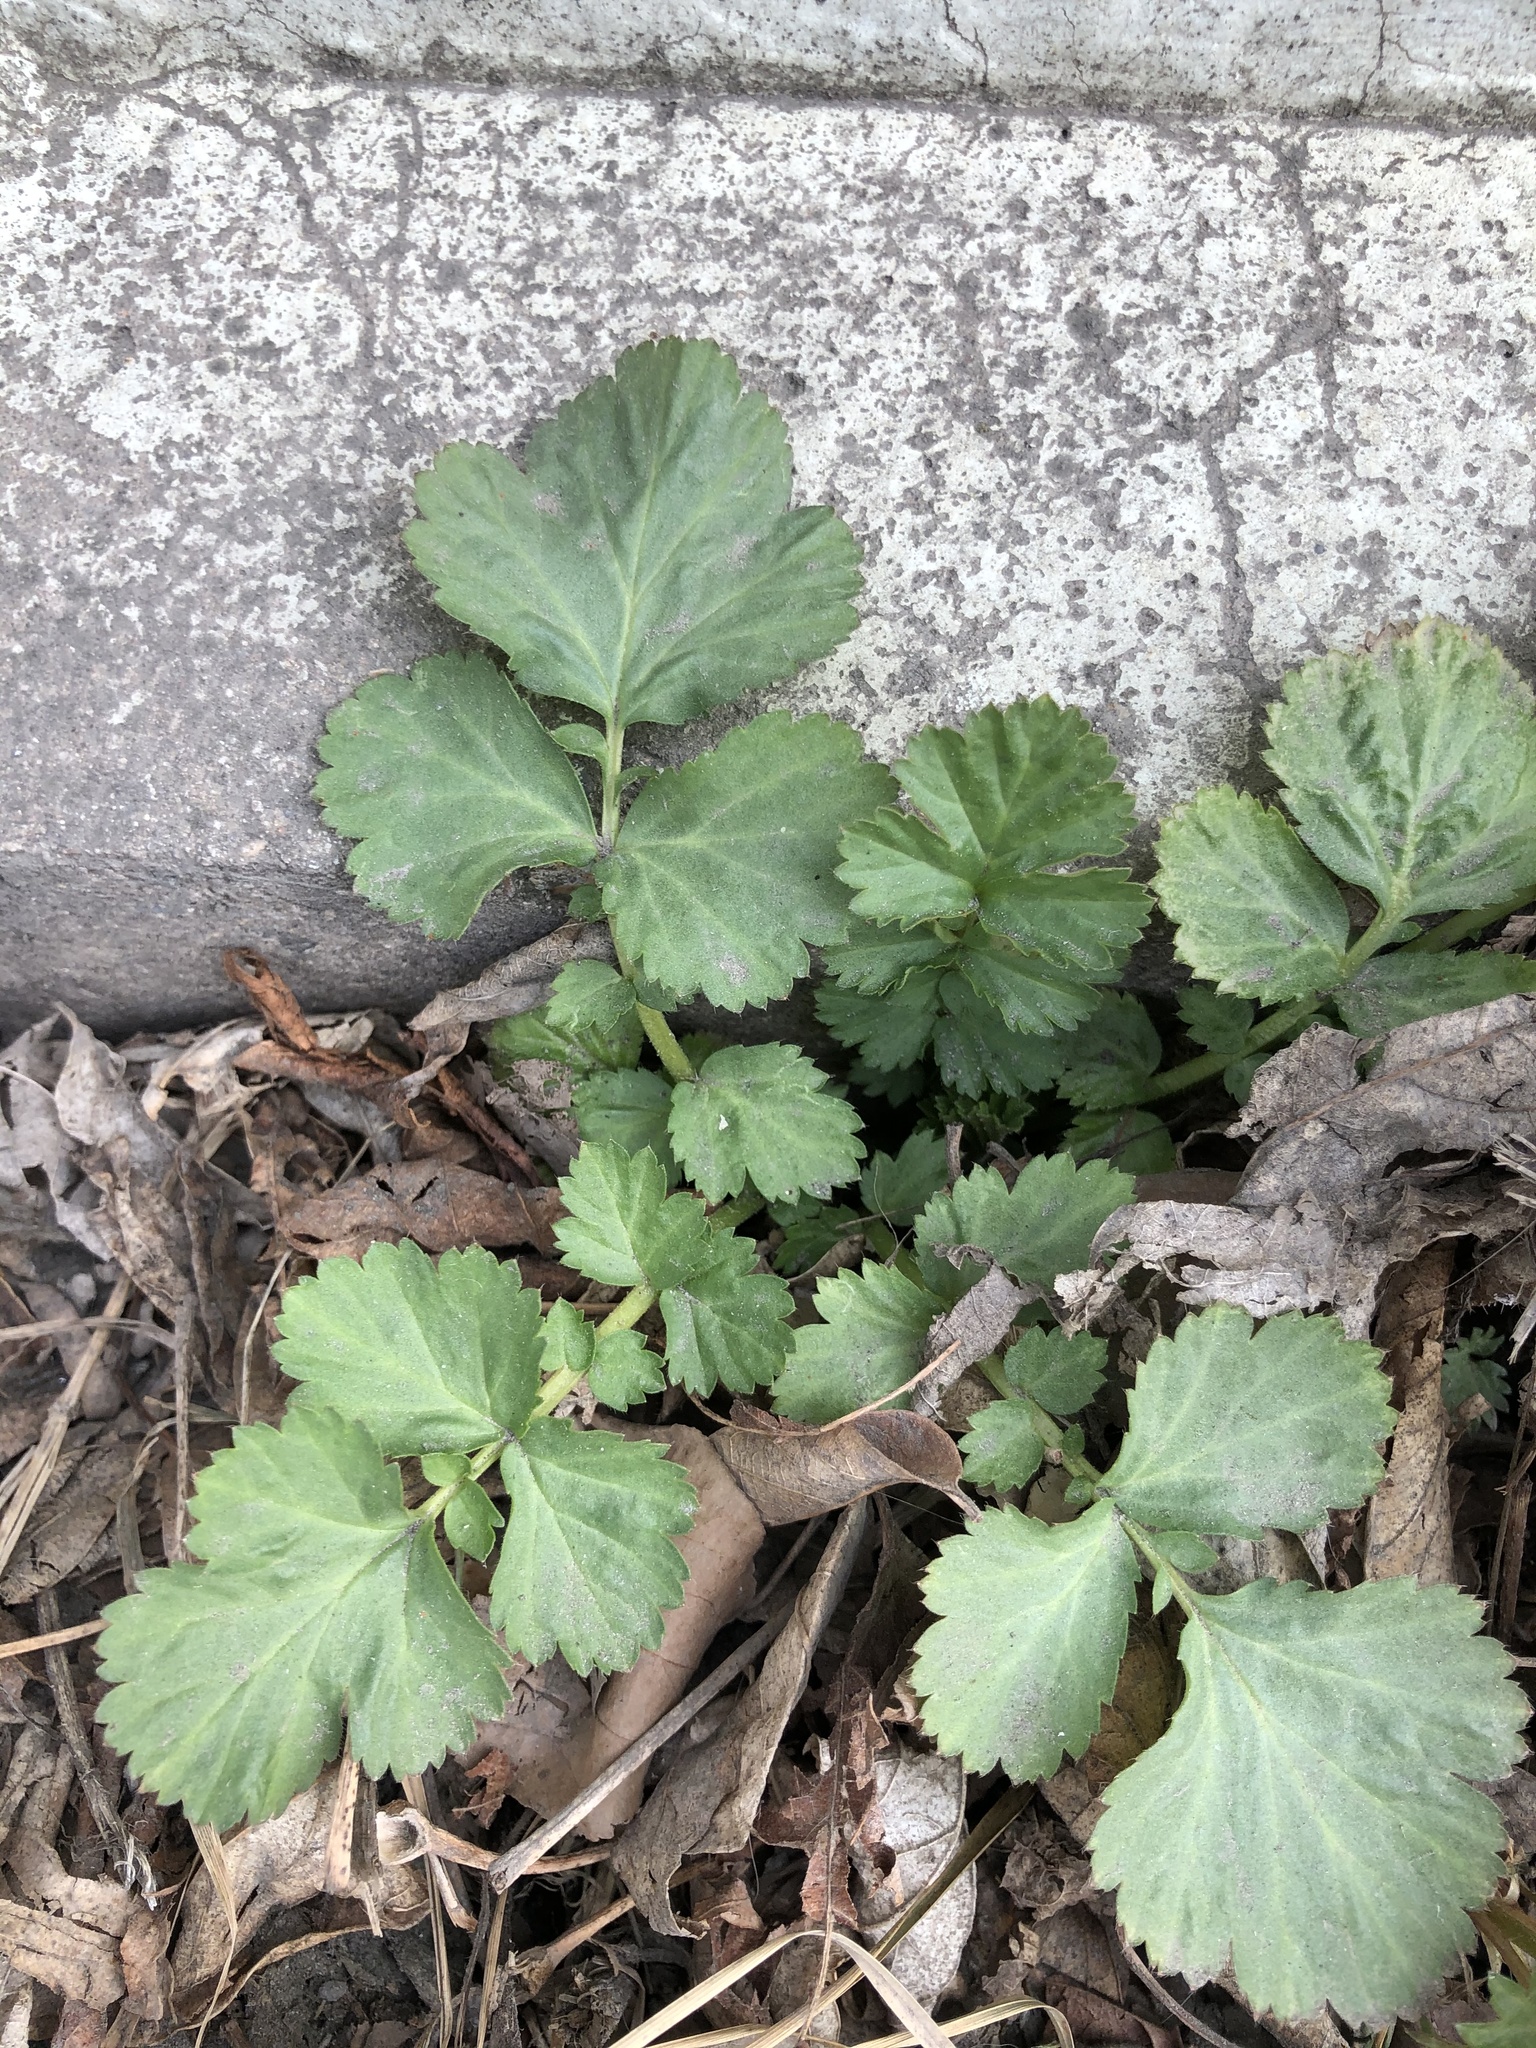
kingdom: Plantae
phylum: Tracheophyta
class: Magnoliopsida
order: Rosales
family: Rosaceae
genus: Geum
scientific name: Geum aleppicum
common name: Yellow avens
